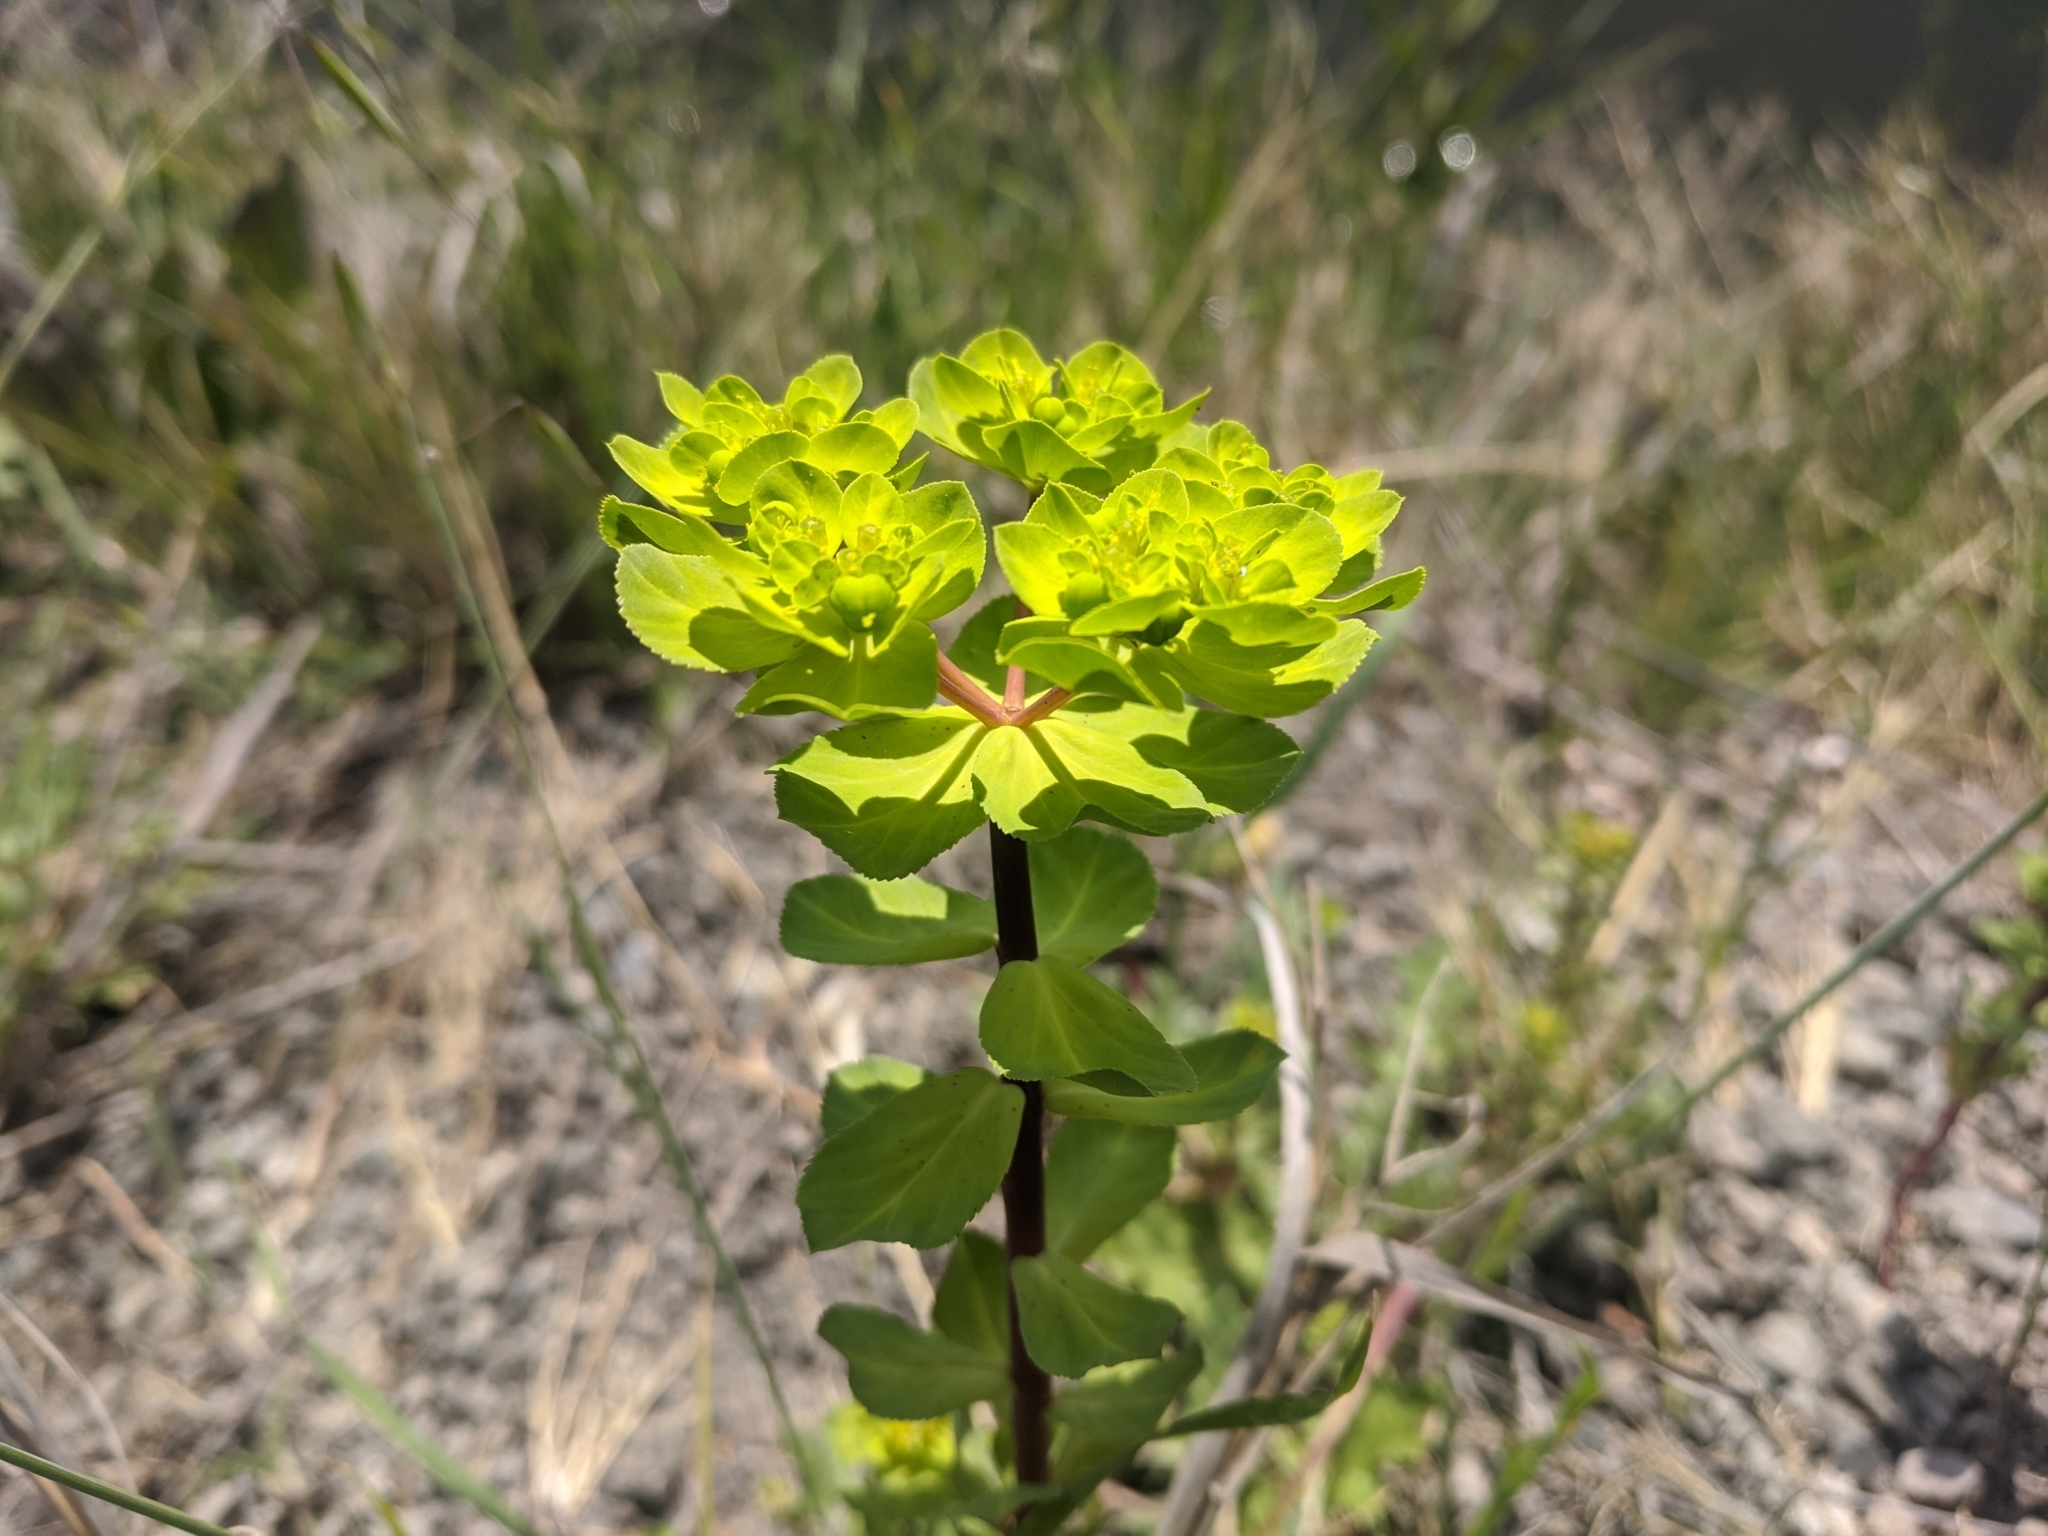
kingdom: Plantae
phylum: Tracheophyta
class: Magnoliopsida
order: Malpighiales
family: Euphorbiaceae
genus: Euphorbia
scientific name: Euphorbia helioscopia
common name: Sun spurge
